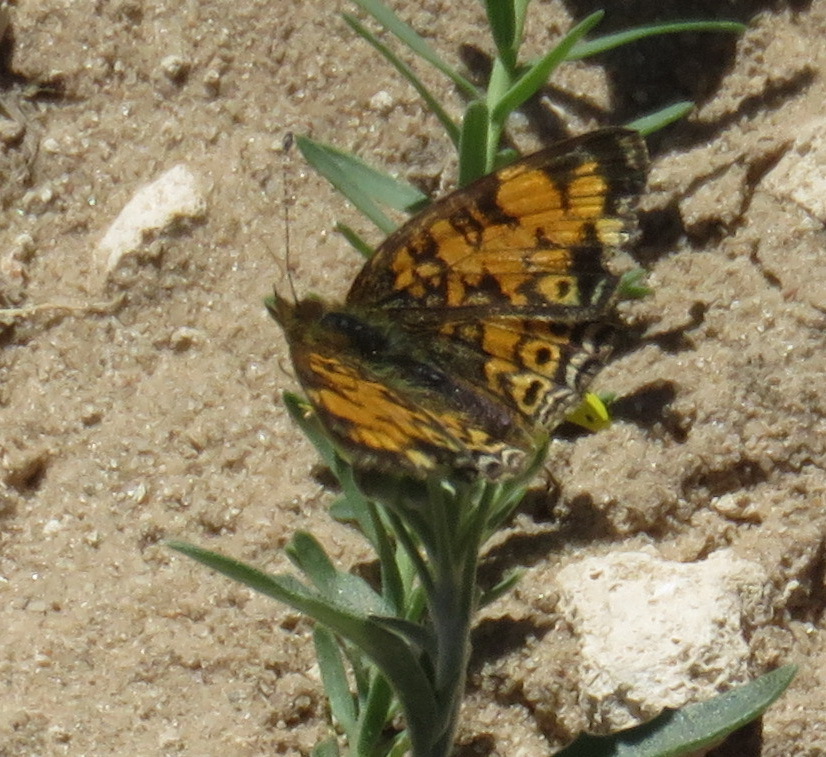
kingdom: Animalia
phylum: Arthropoda
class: Insecta
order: Lepidoptera
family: Nymphalidae
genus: Phyciodes
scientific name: Phyciodes tharos
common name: Pearl crescent
